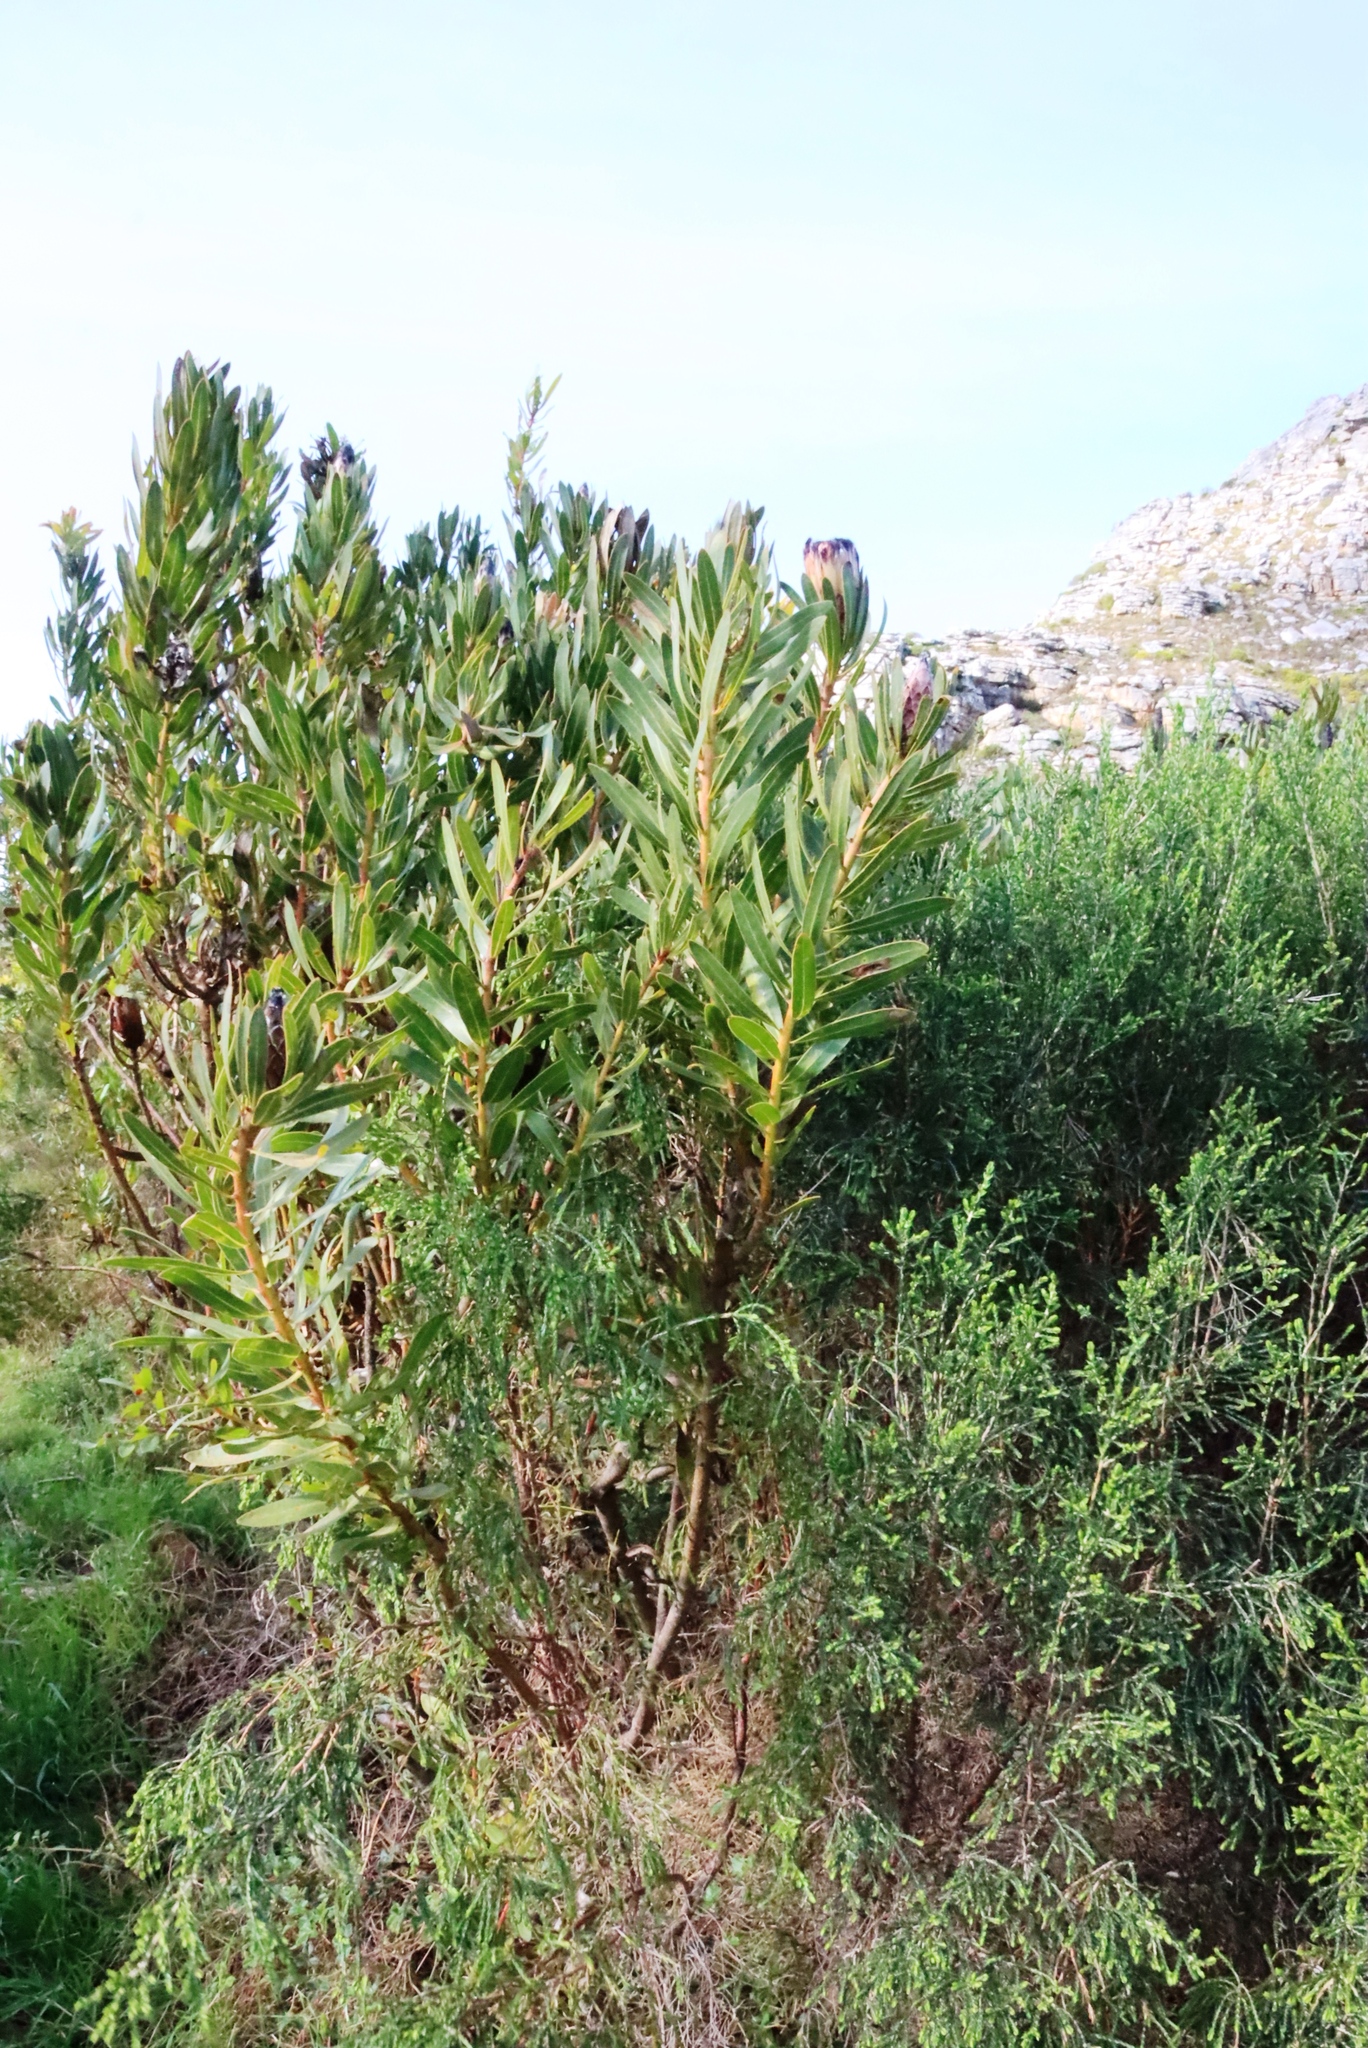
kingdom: Plantae
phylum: Tracheophyta
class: Magnoliopsida
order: Proteales
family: Proteaceae
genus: Protea
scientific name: Protea lepidocarpodendron
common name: Black-bearded protea
